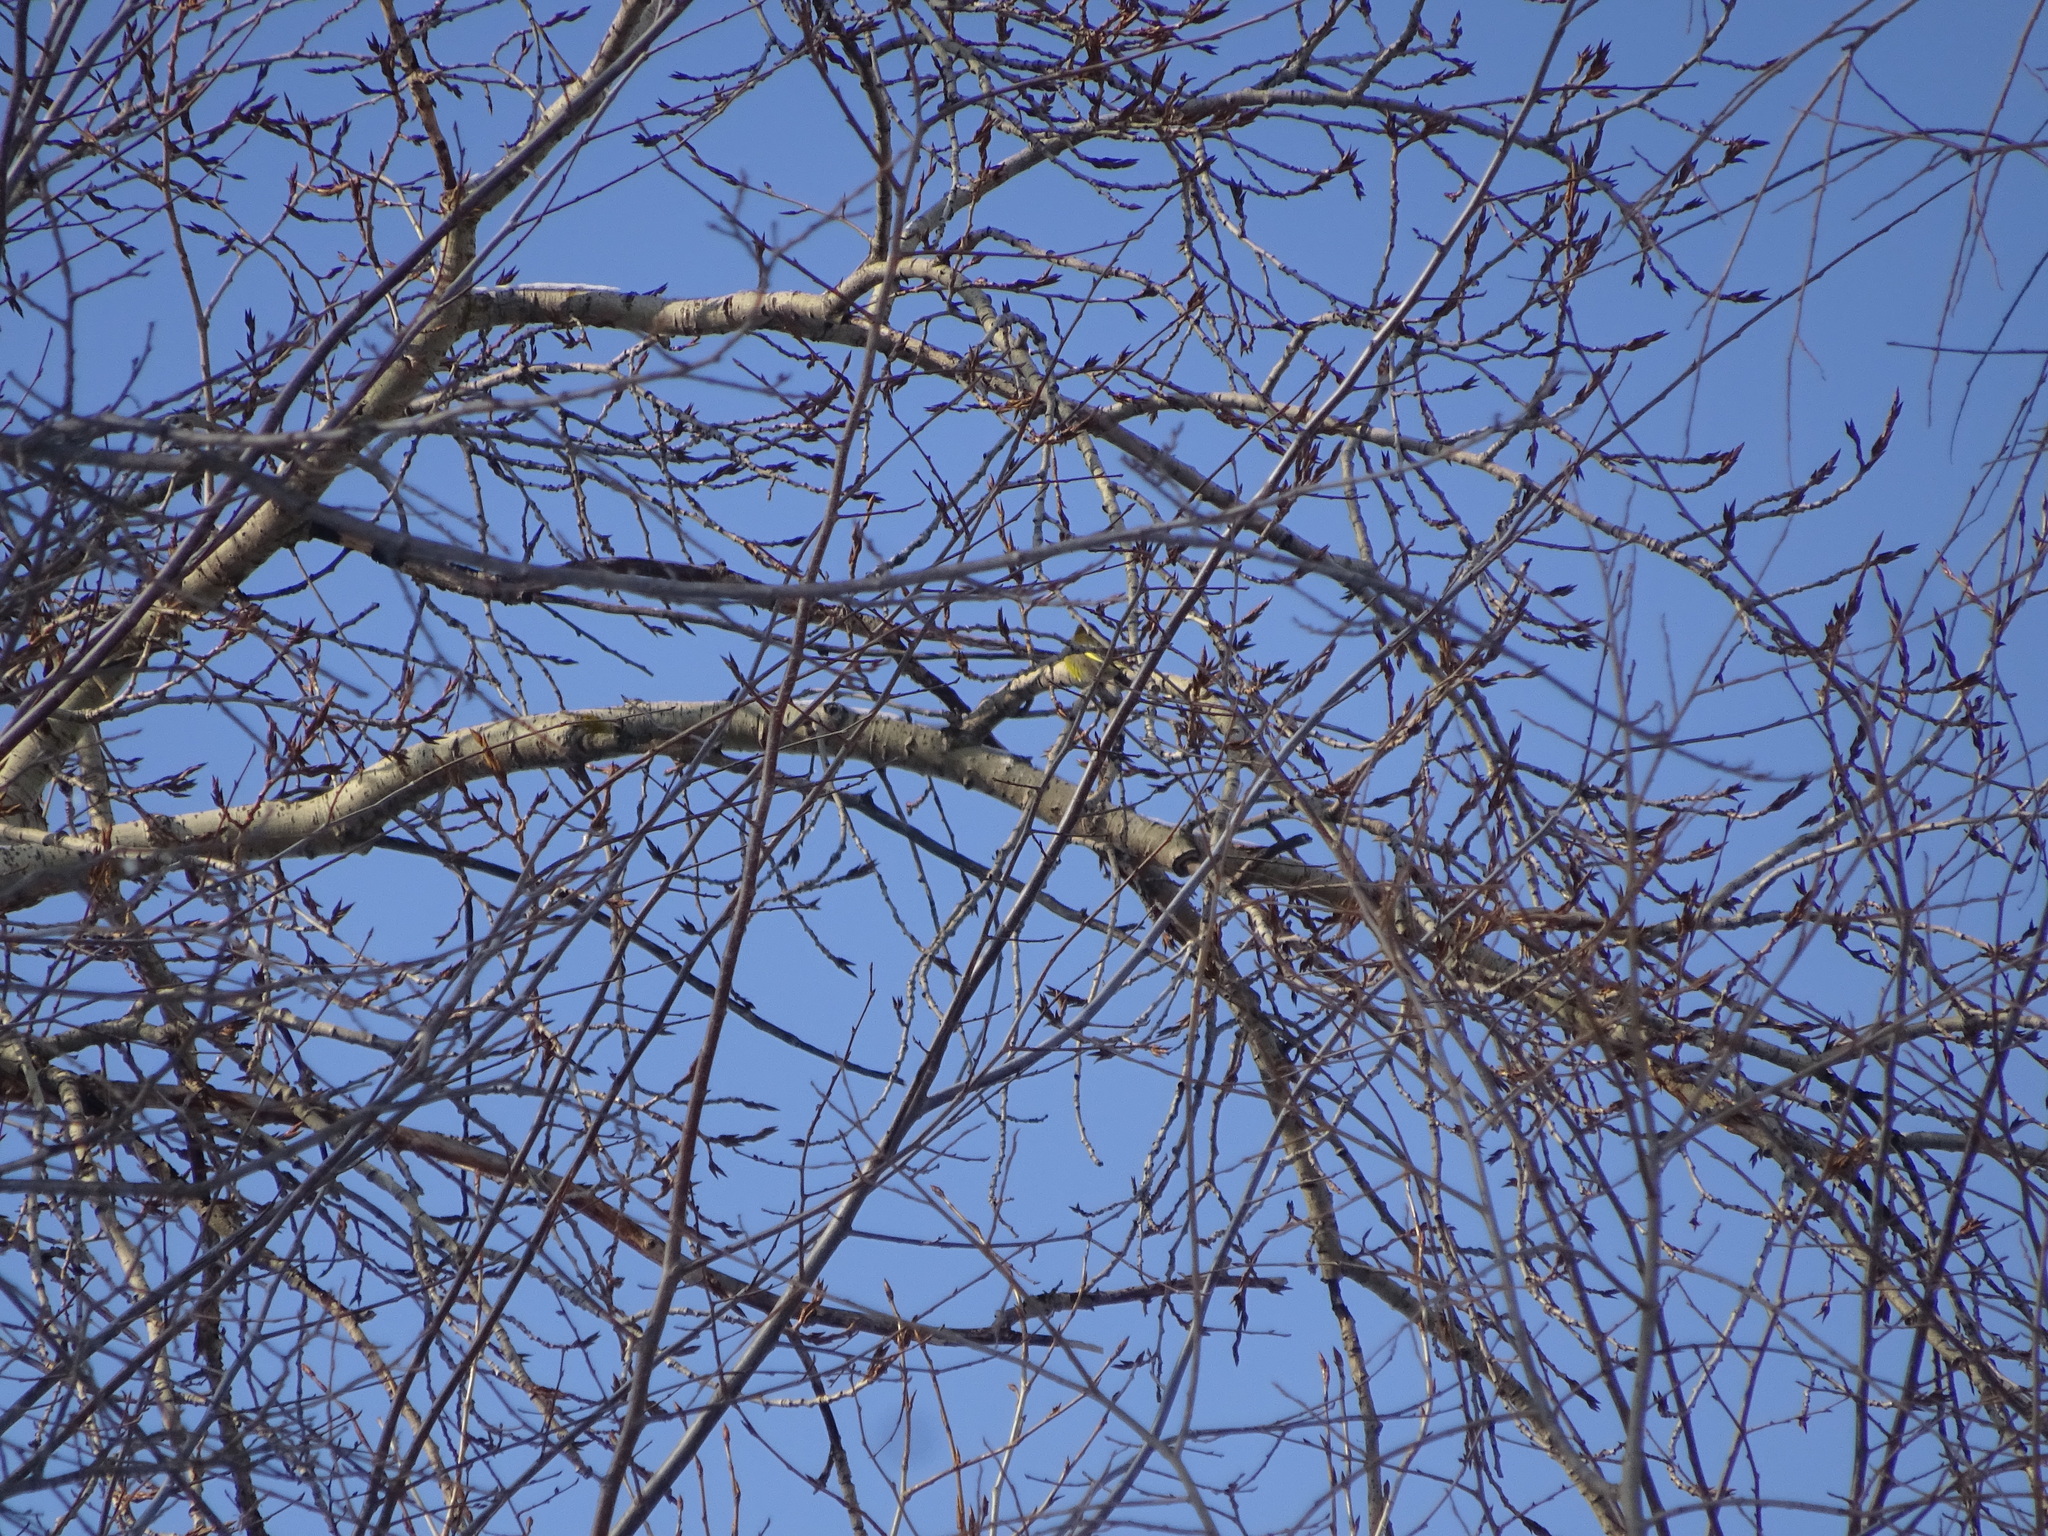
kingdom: Plantae
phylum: Tracheophyta
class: Liliopsida
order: Poales
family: Poaceae
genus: Chloris
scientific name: Chloris chloris
